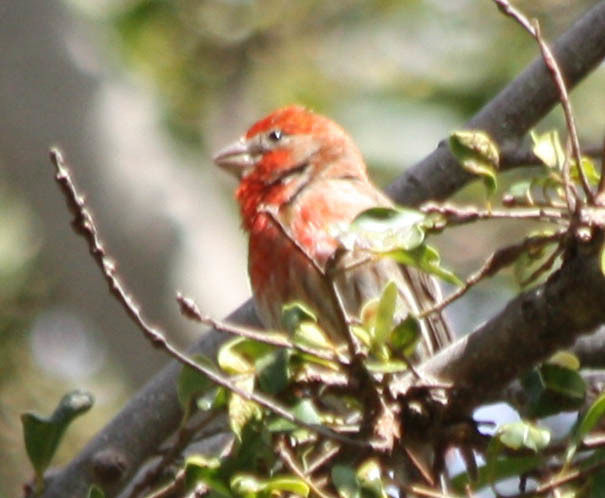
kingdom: Animalia
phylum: Chordata
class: Aves
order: Passeriformes
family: Fringillidae
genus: Haemorhous
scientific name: Haemorhous mexicanus
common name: House finch
